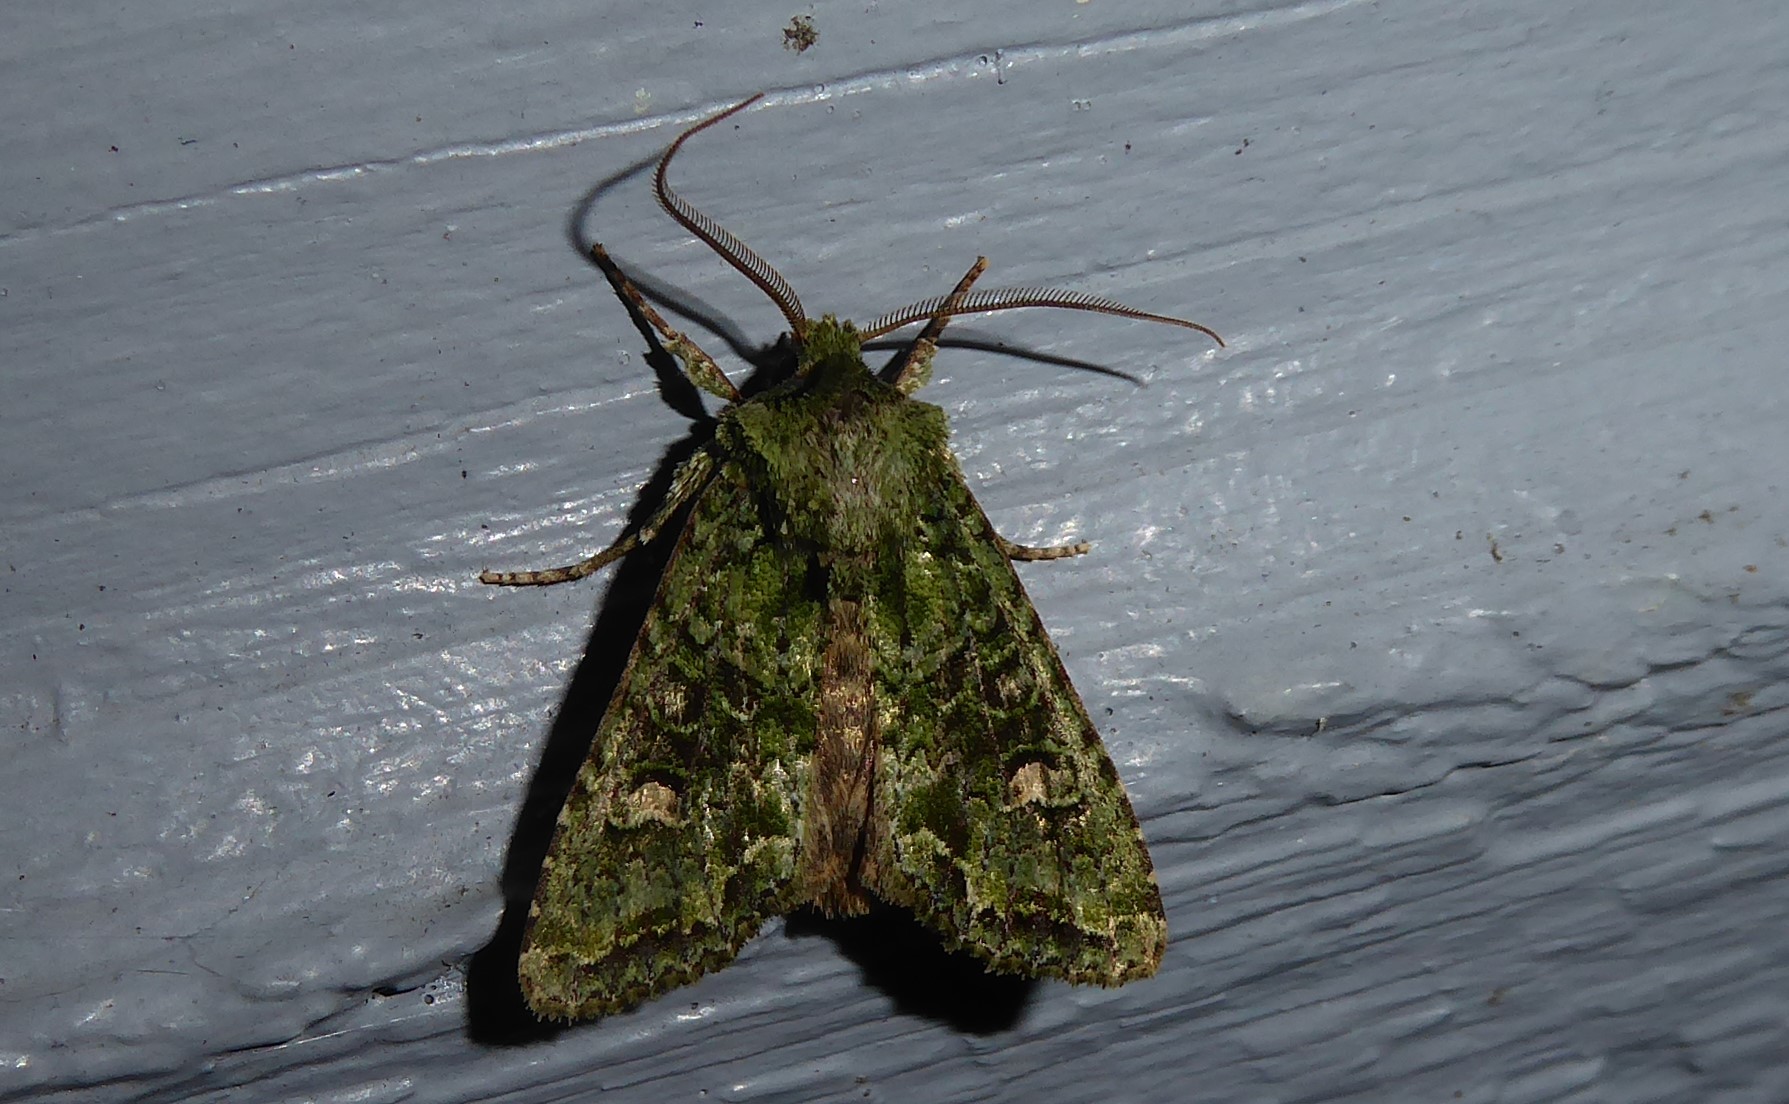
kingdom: Animalia
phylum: Arthropoda
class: Insecta
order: Lepidoptera
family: Noctuidae
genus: Ichneutica
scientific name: Ichneutica
